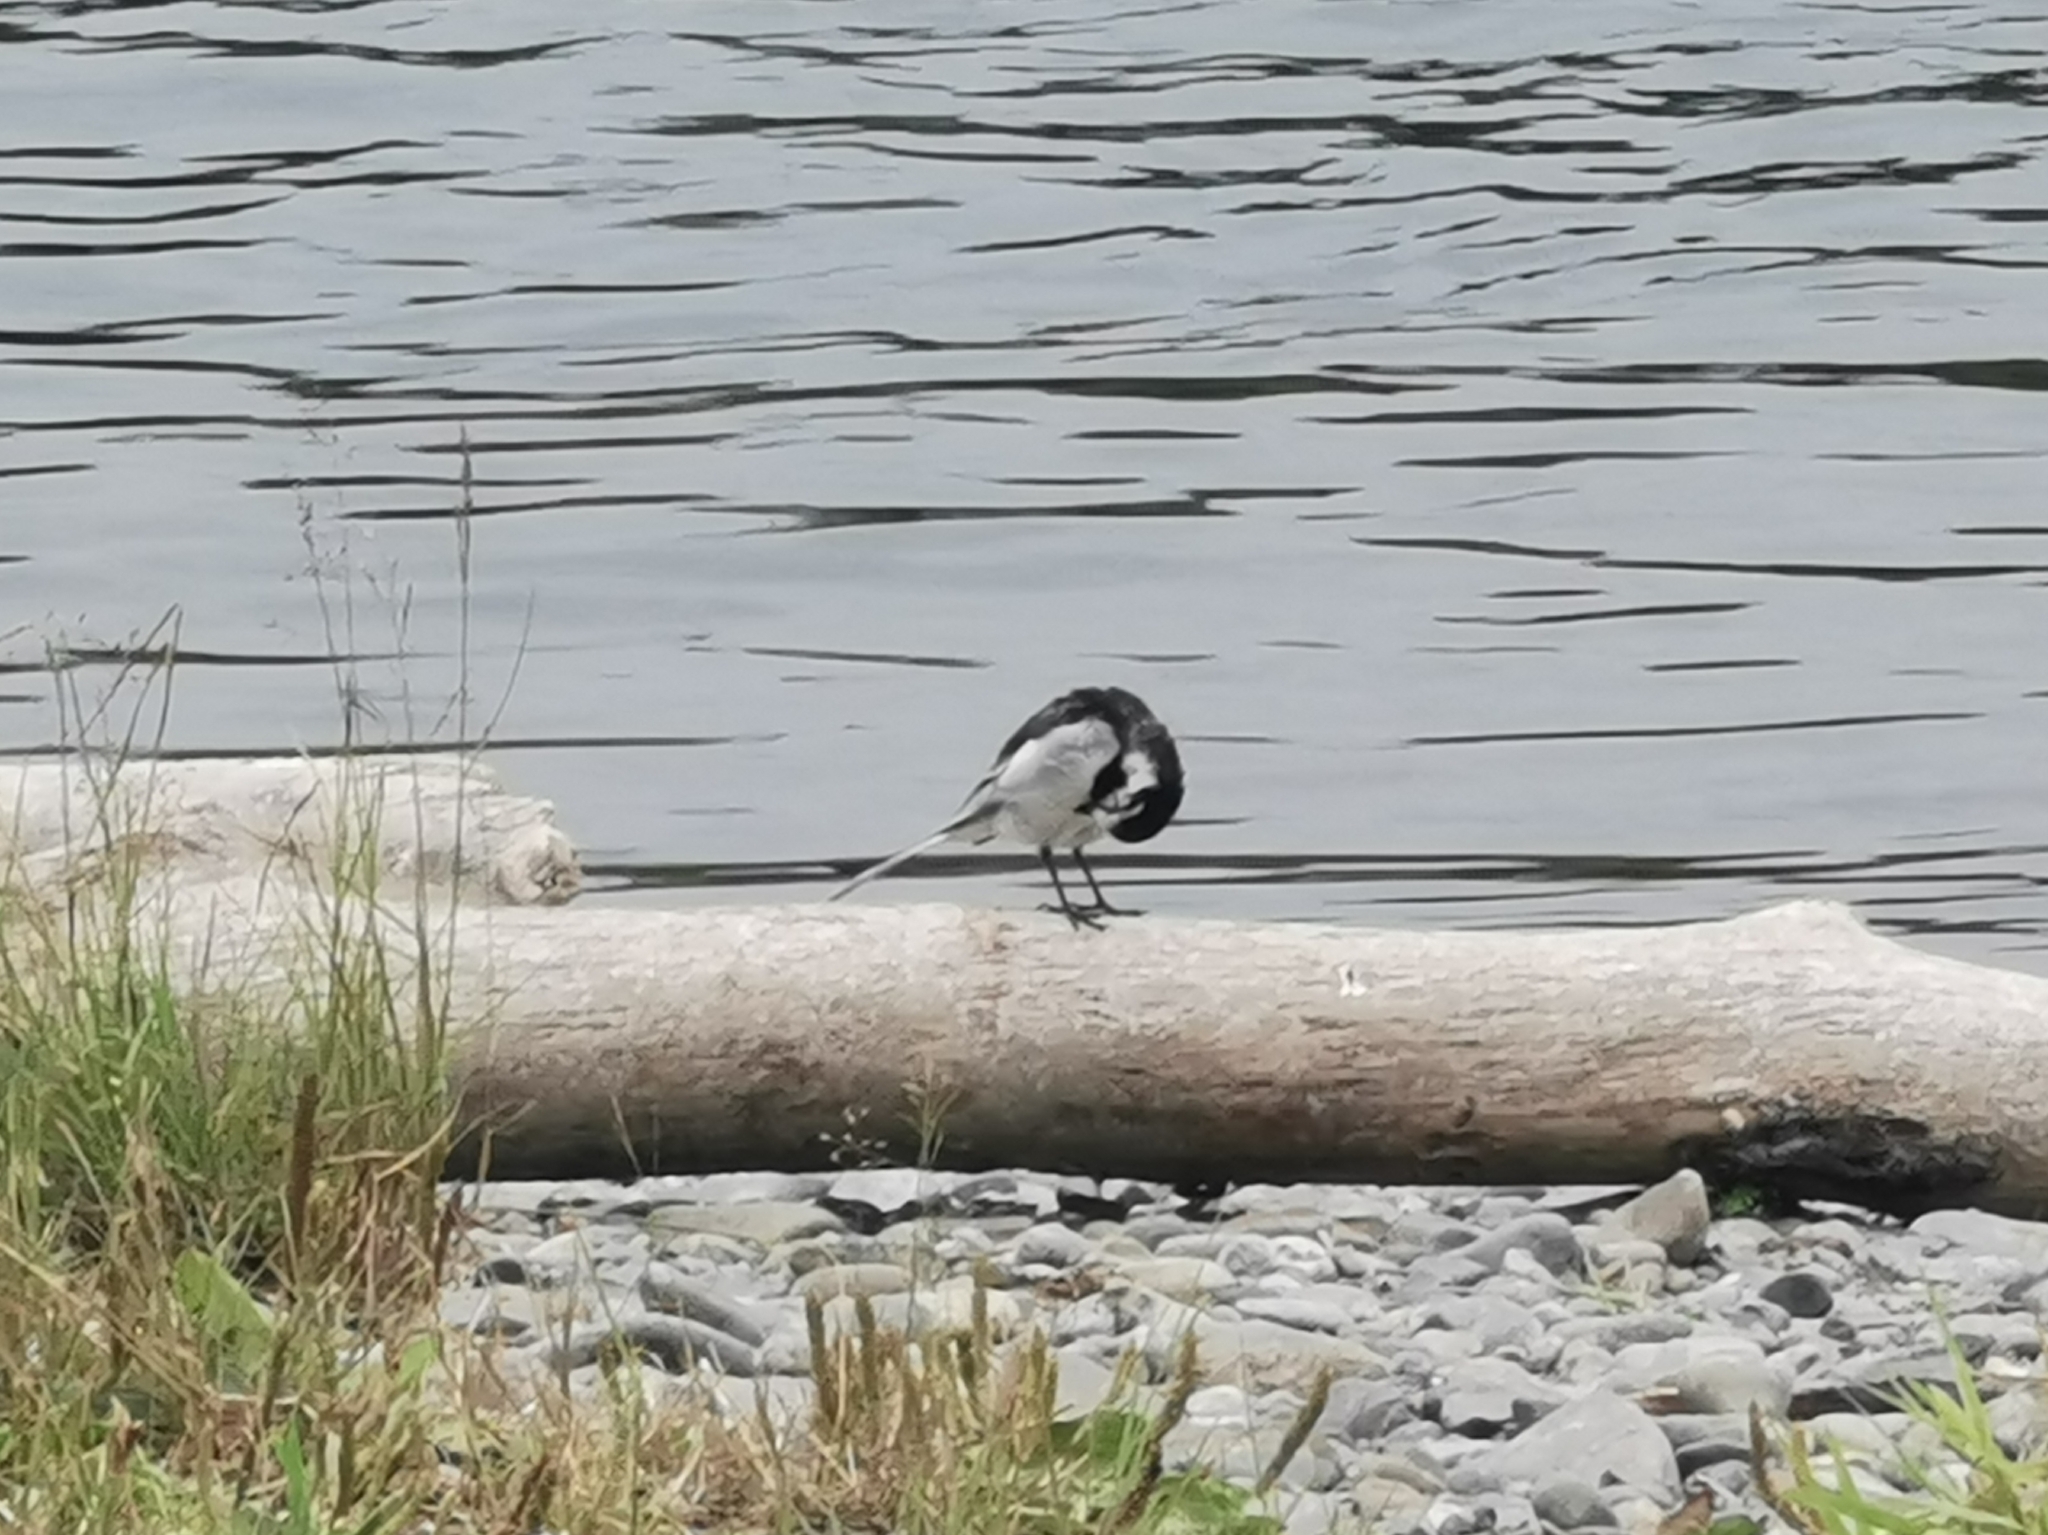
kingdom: Animalia
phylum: Chordata
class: Aves
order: Passeriformes
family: Motacillidae
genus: Motacilla
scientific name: Motacilla alba
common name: White wagtail
